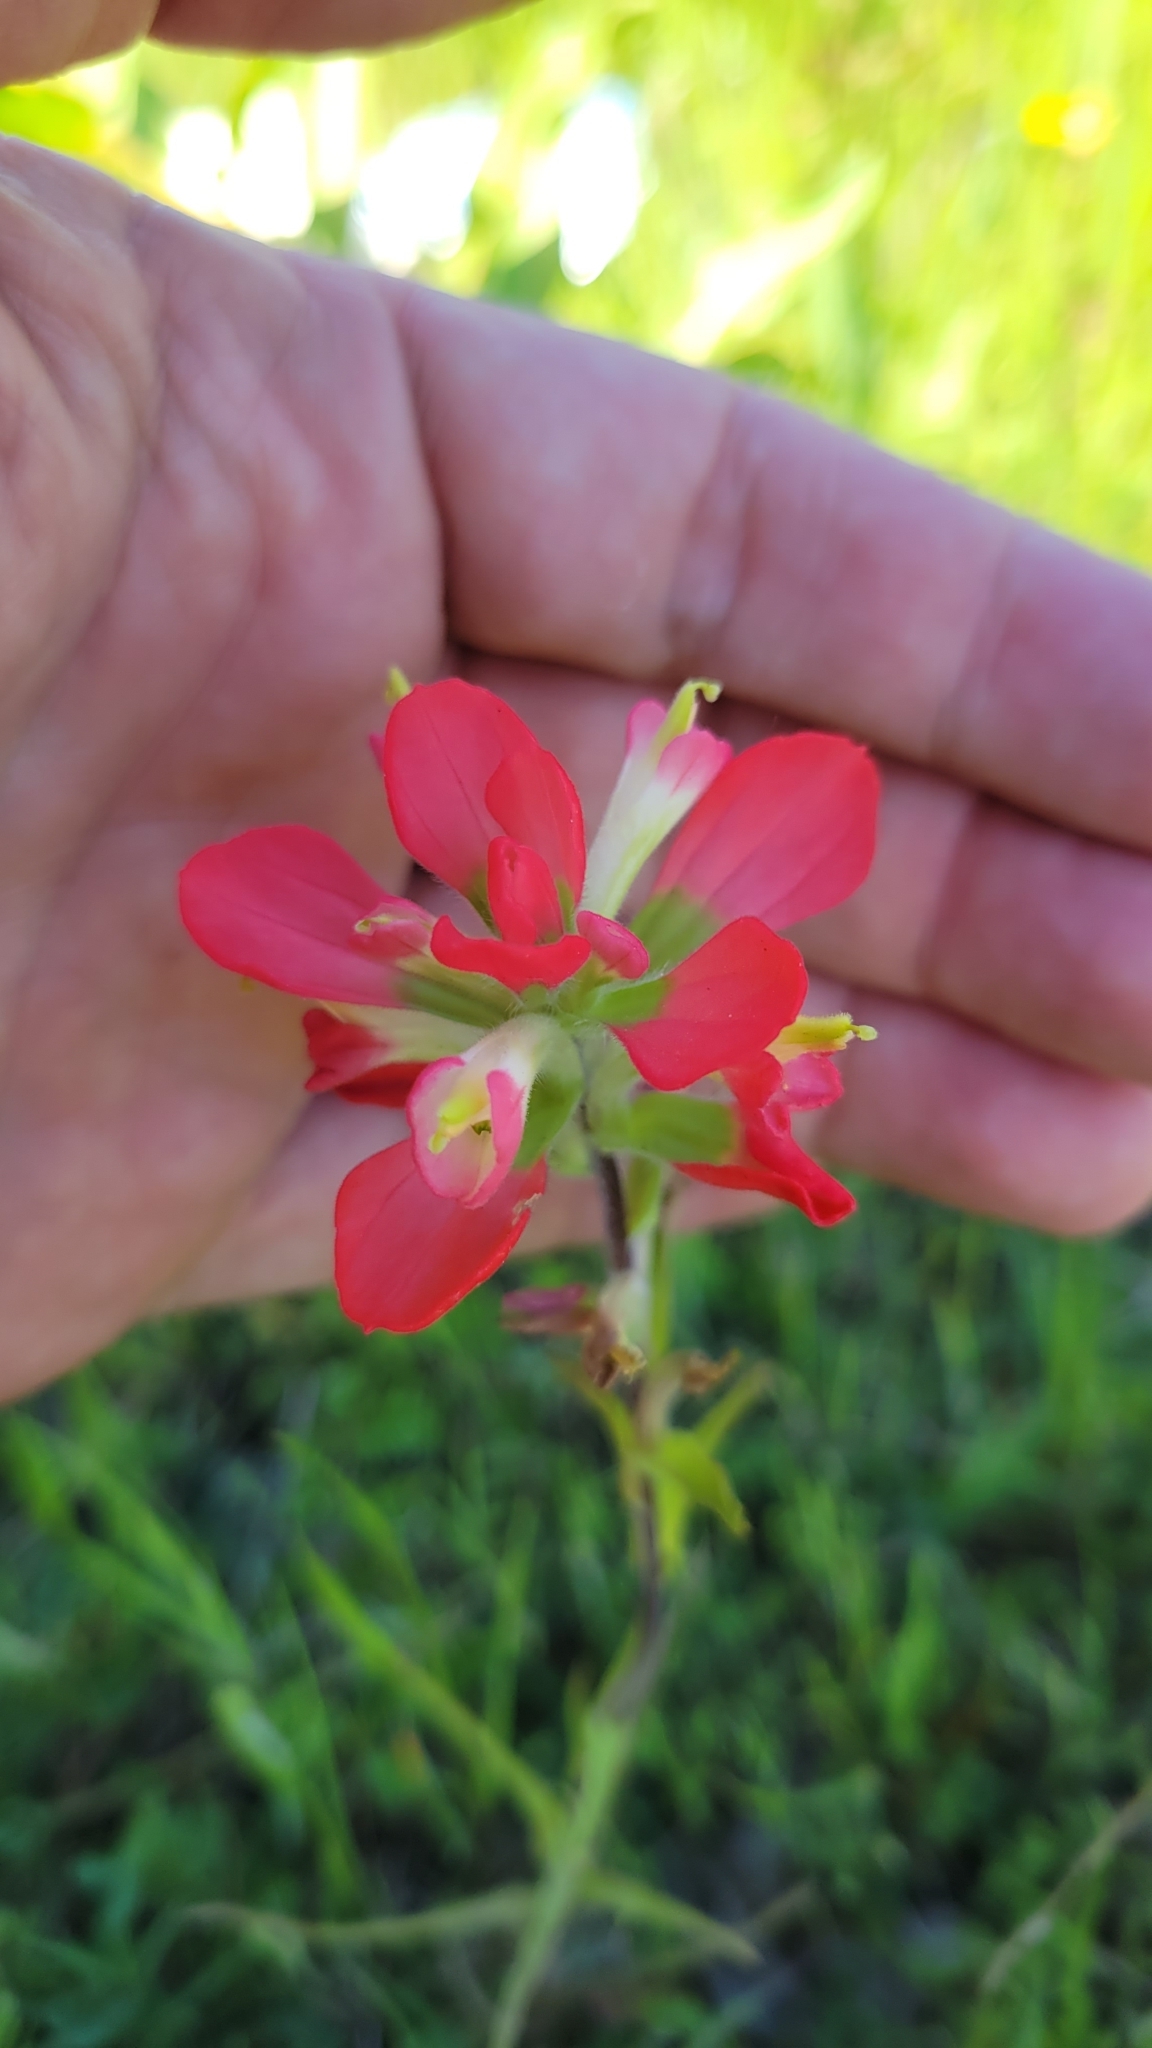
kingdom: Plantae
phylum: Tracheophyta
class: Magnoliopsida
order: Lamiales
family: Orobanchaceae
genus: Castilleja
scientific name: Castilleja indivisa
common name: Texas paintbrush
